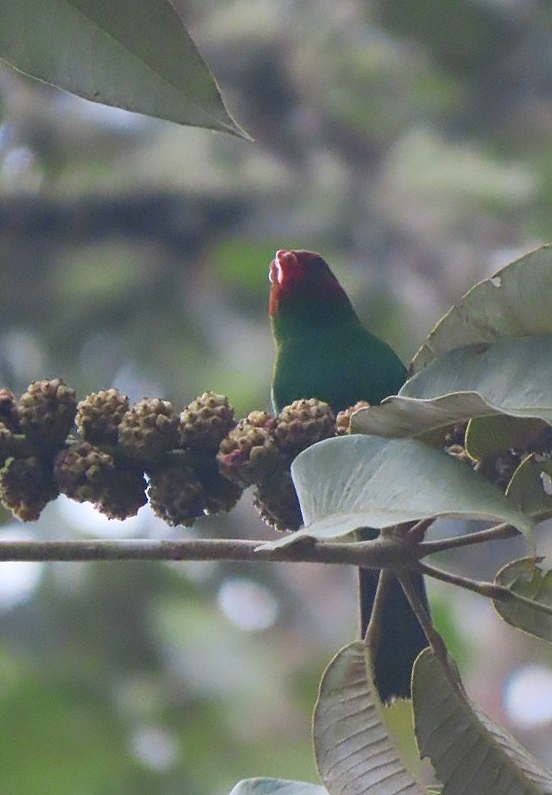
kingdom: Animalia
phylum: Chordata
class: Aves
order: Passeriformes
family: Thraupidae
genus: Chlorornis
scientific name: Chlorornis riefferii
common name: Grass-green tanager
